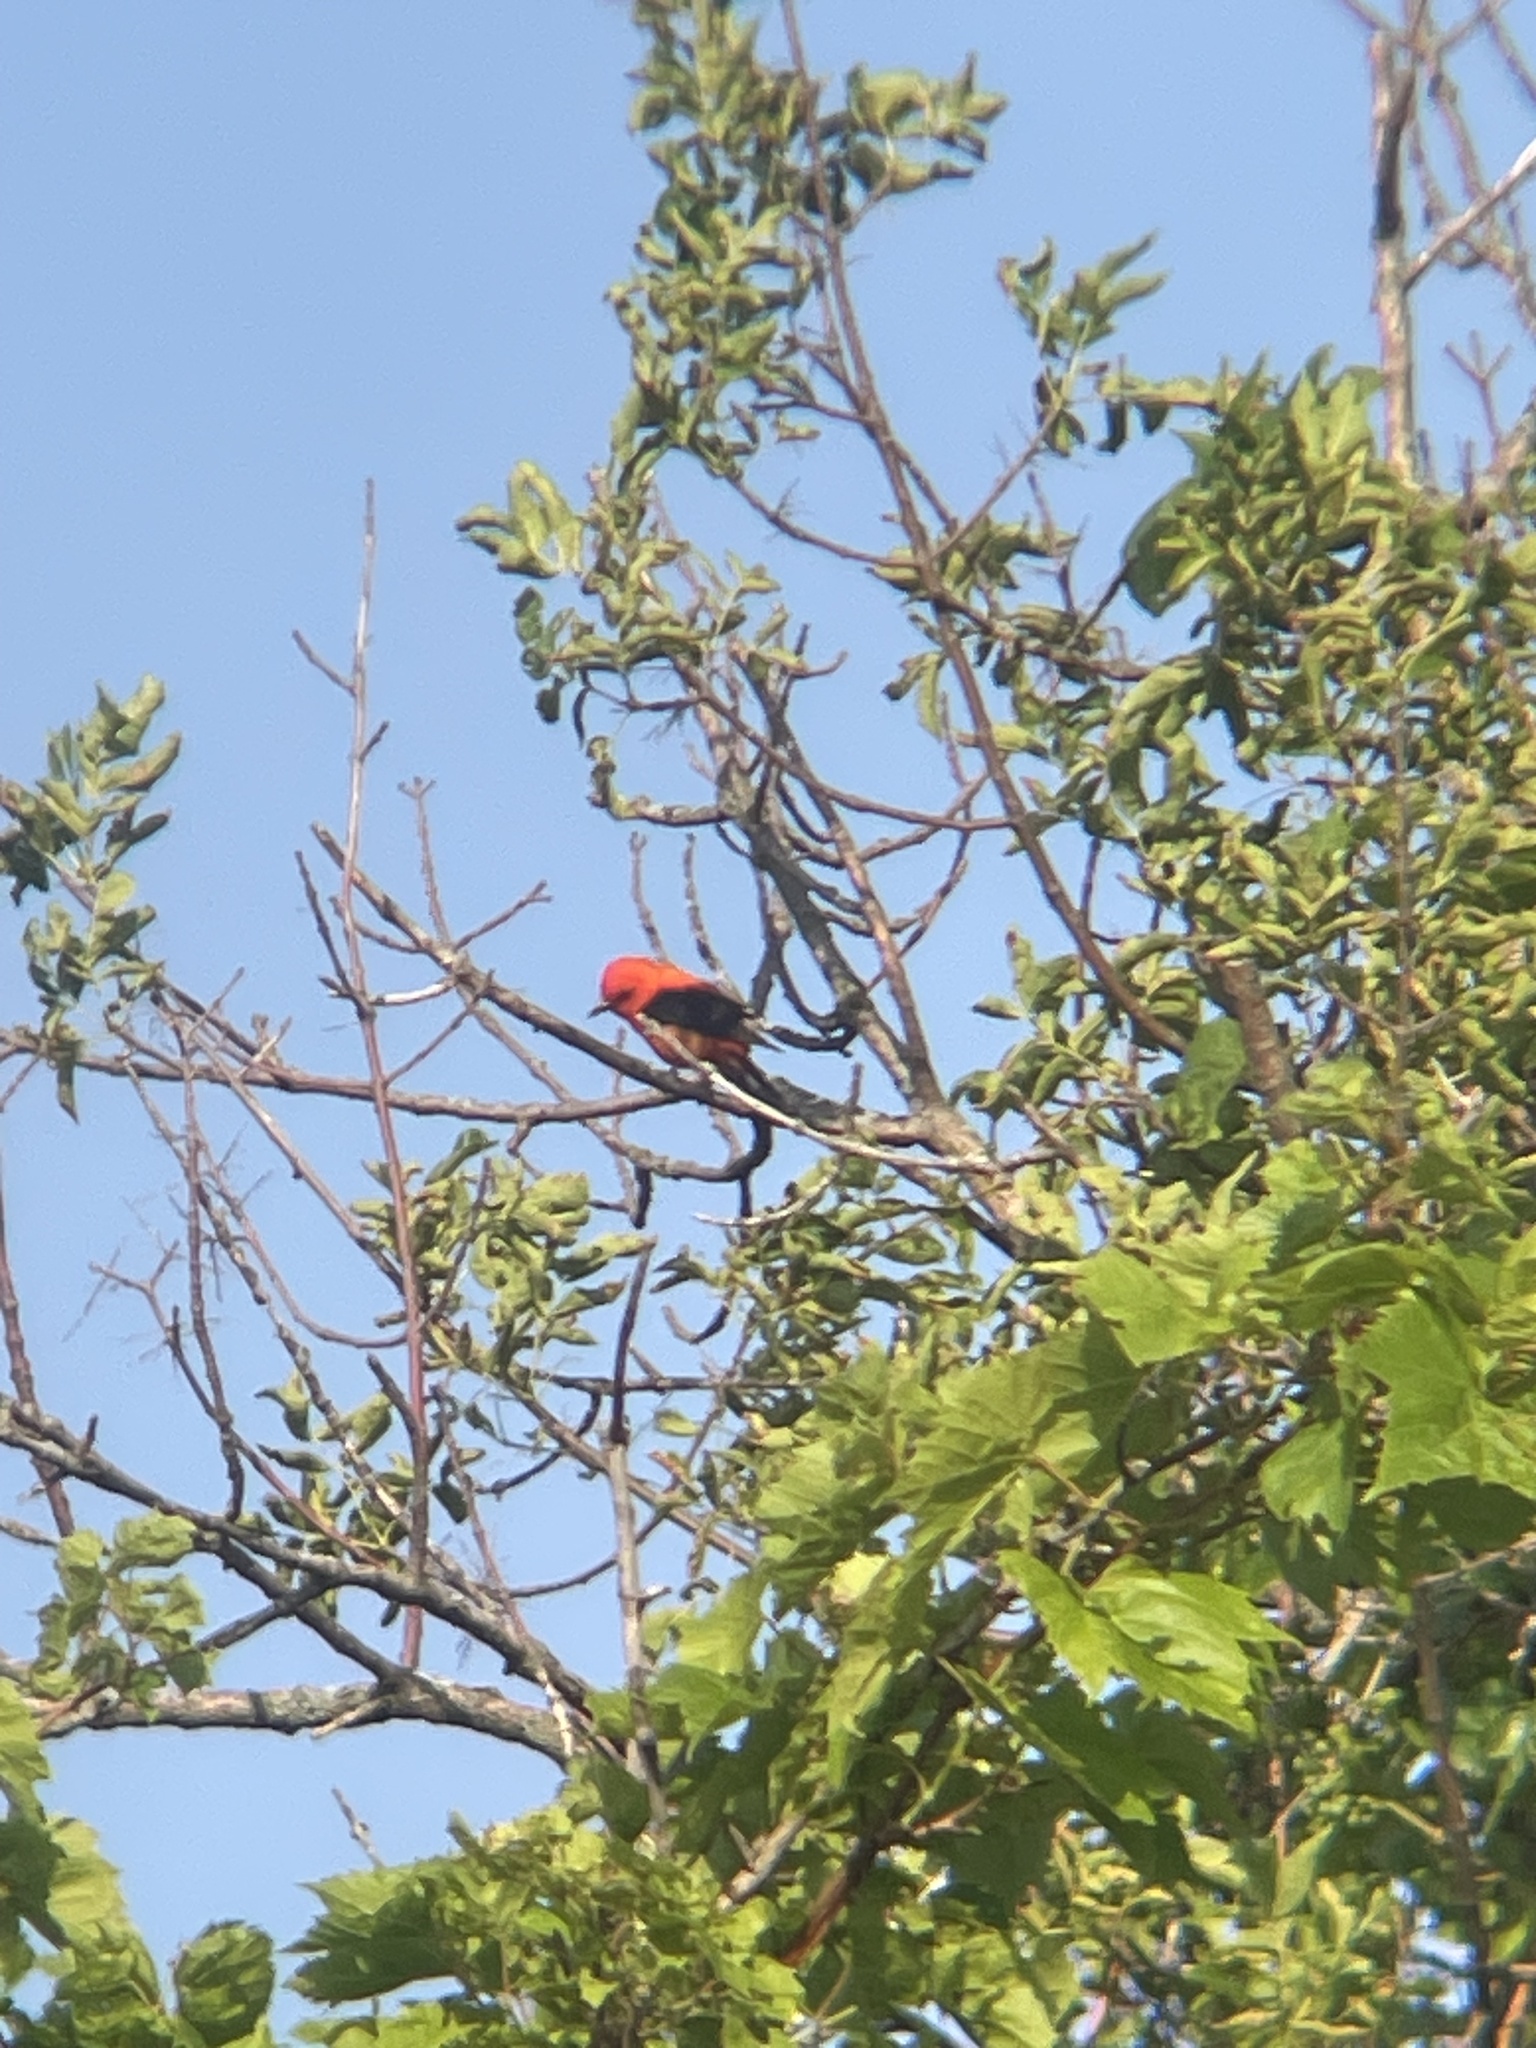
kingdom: Animalia
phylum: Chordata
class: Aves
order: Passeriformes
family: Cardinalidae
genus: Piranga
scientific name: Piranga olivacea
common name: Scarlet tanager
